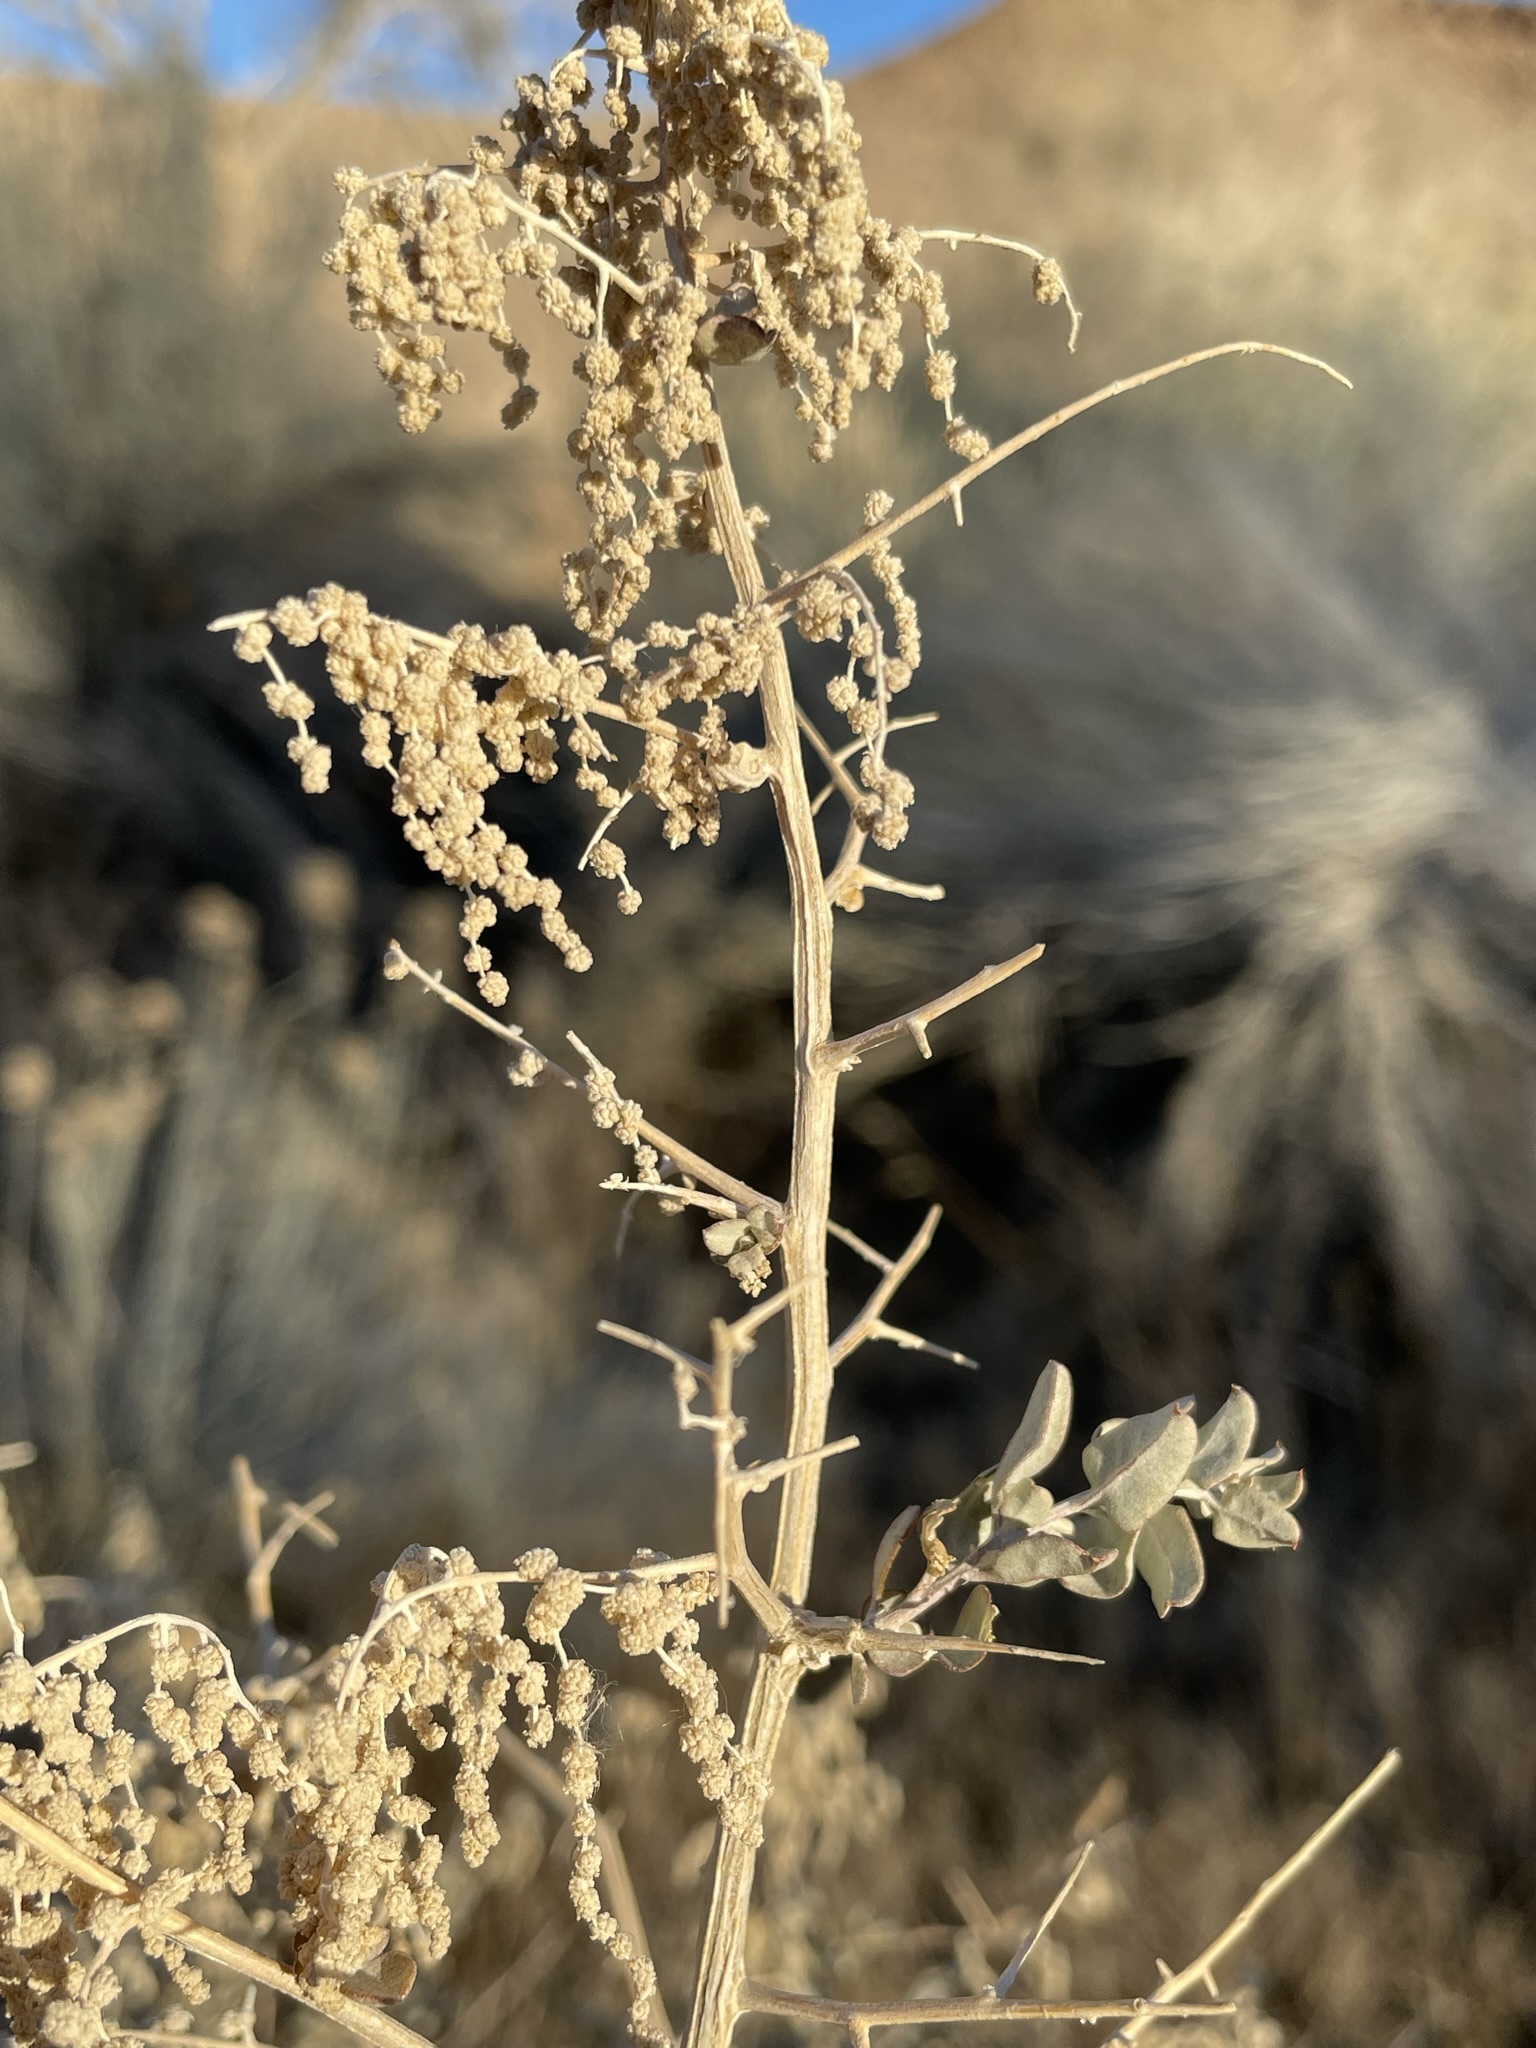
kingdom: Plantae
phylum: Tracheophyta
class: Magnoliopsida
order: Caryophyllales
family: Amaranthaceae
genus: Atriplex
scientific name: Atriplex torreyi
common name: Torrey's saltbush
